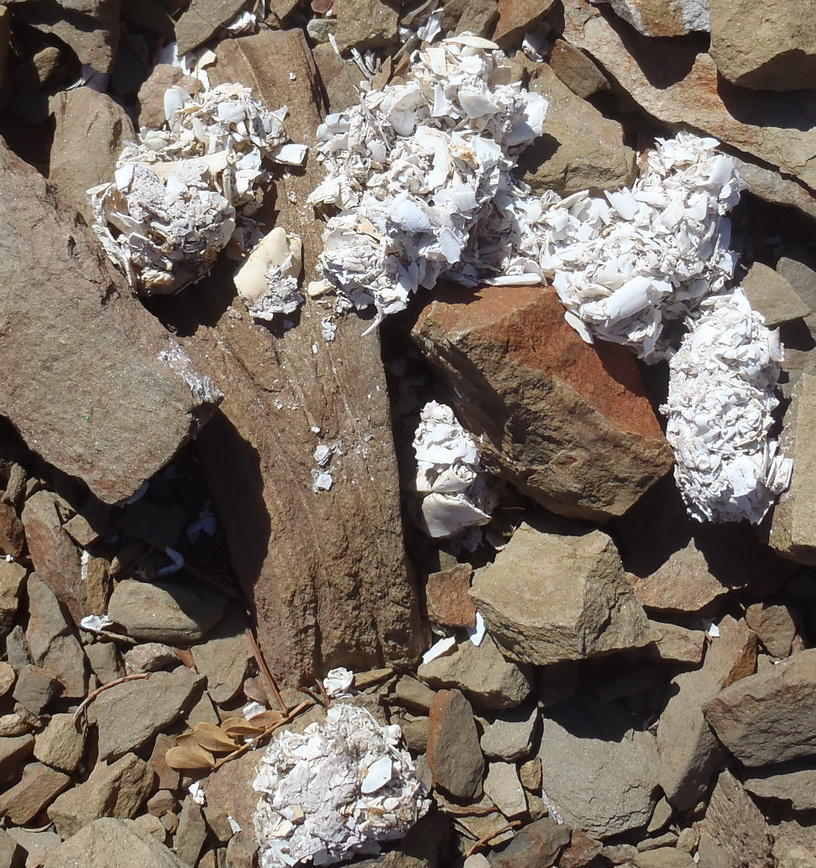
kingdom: Animalia
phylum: Chordata
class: Mammalia
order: Carnivora
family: Mustelidae
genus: Aonyx
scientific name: Aonyx capensis
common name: African clawless otter
